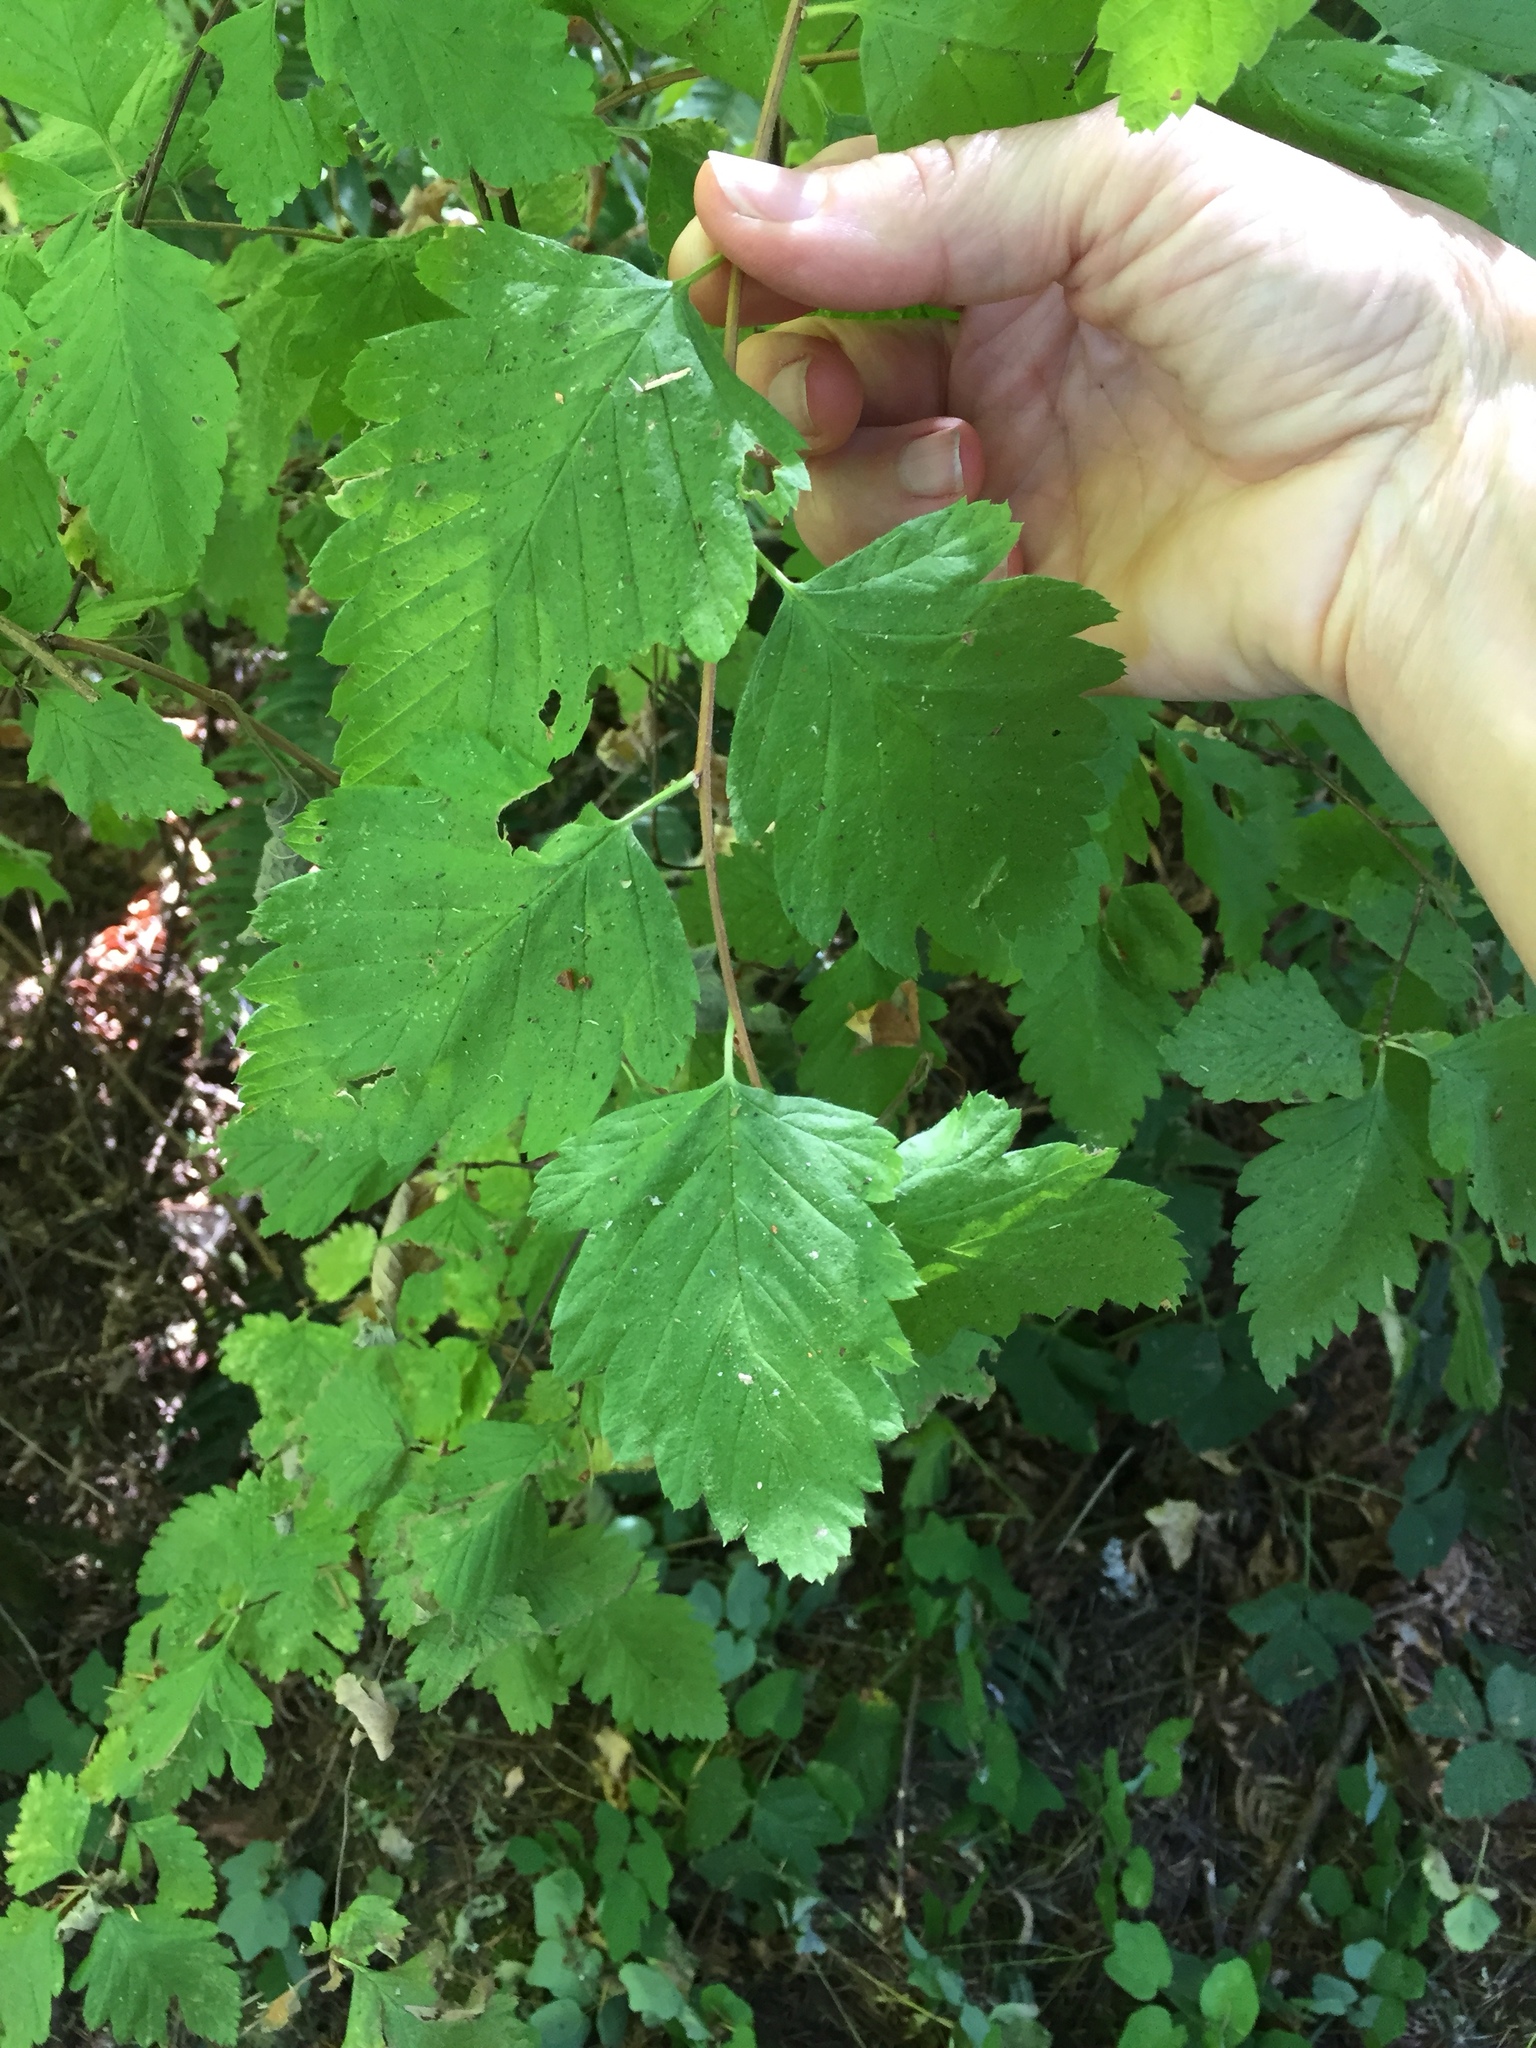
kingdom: Plantae
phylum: Tracheophyta
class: Magnoliopsida
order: Rosales
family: Rosaceae
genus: Holodiscus
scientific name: Holodiscus discolor
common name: Oceanspray
